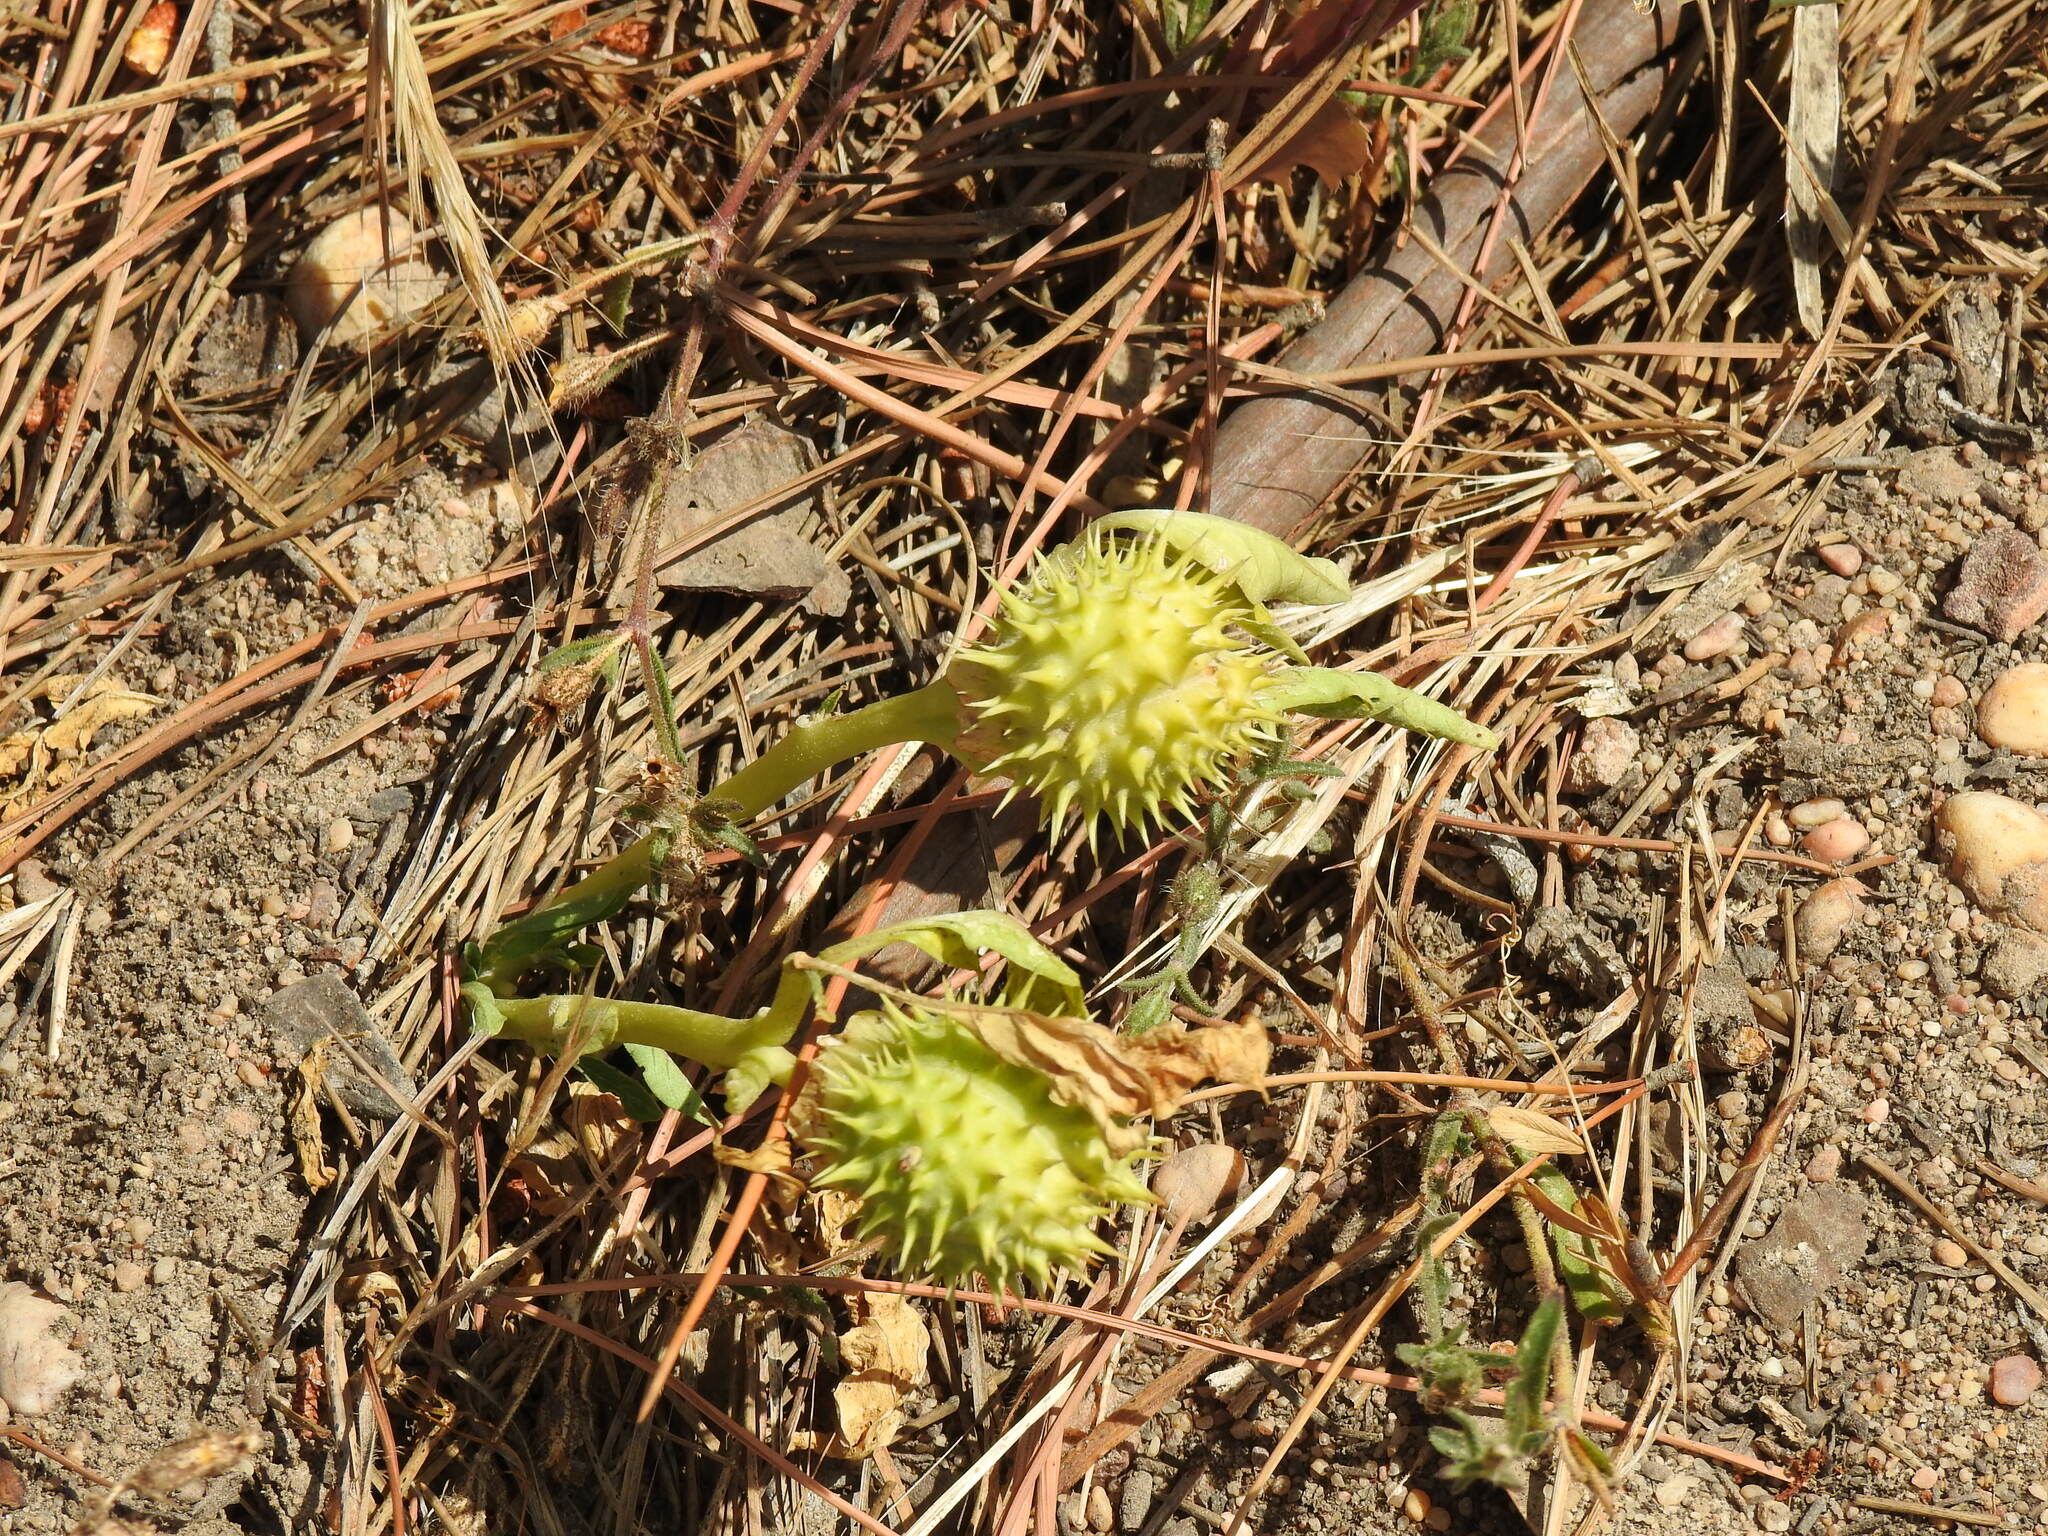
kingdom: Plantae
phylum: Tracheophyta
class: Magnoliopsida
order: Solanales
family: Solanaceae
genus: Datura
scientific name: Datura stramonium
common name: Thorn-apple
